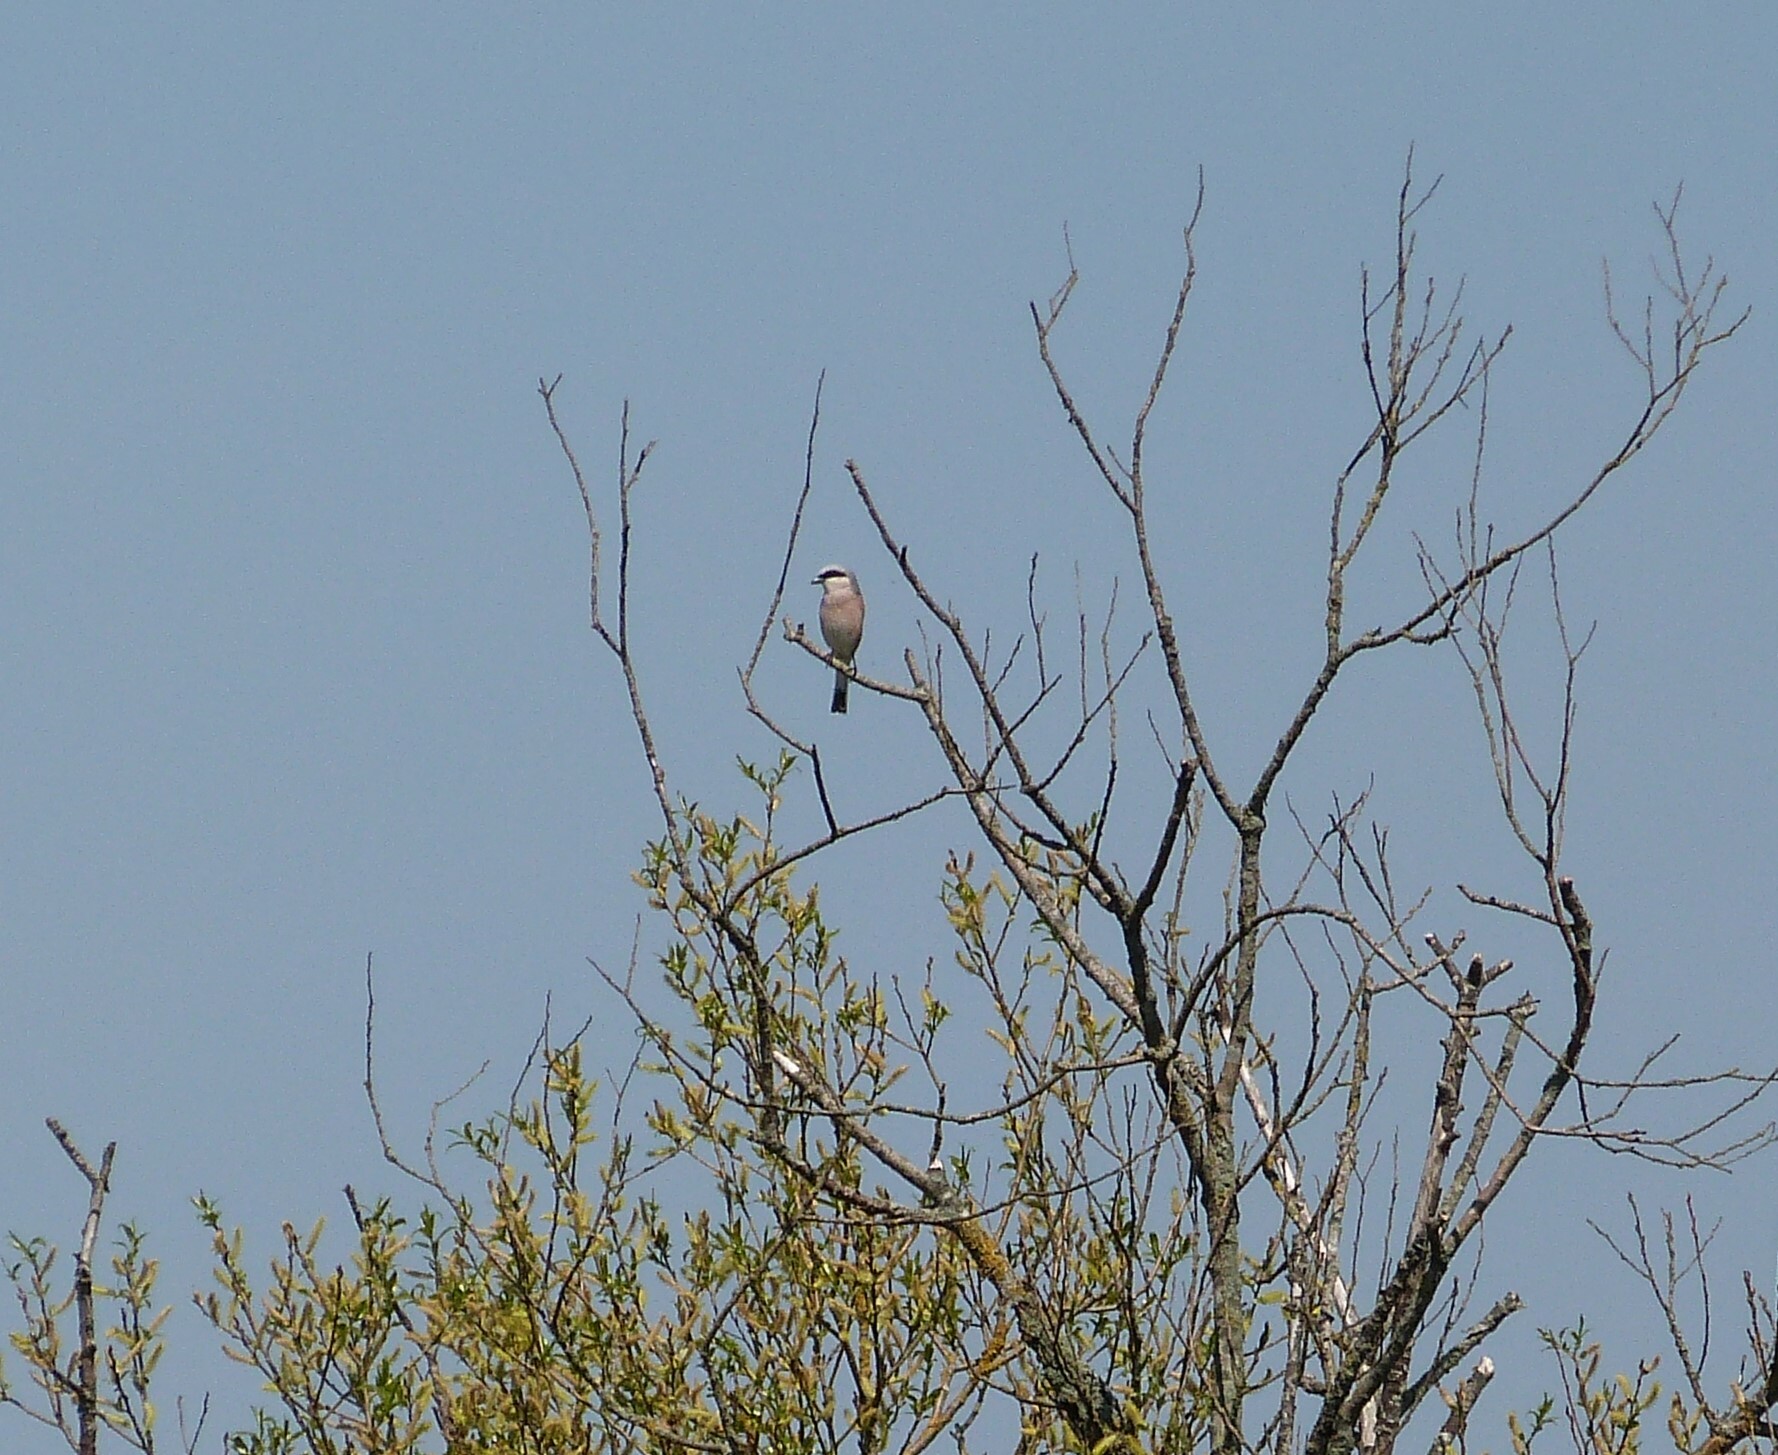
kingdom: Animalia
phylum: Chordata
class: Aves
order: Passeriformes
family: Laniidae
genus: Lanius
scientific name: Lanius collurio
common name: Red-backed shrike
